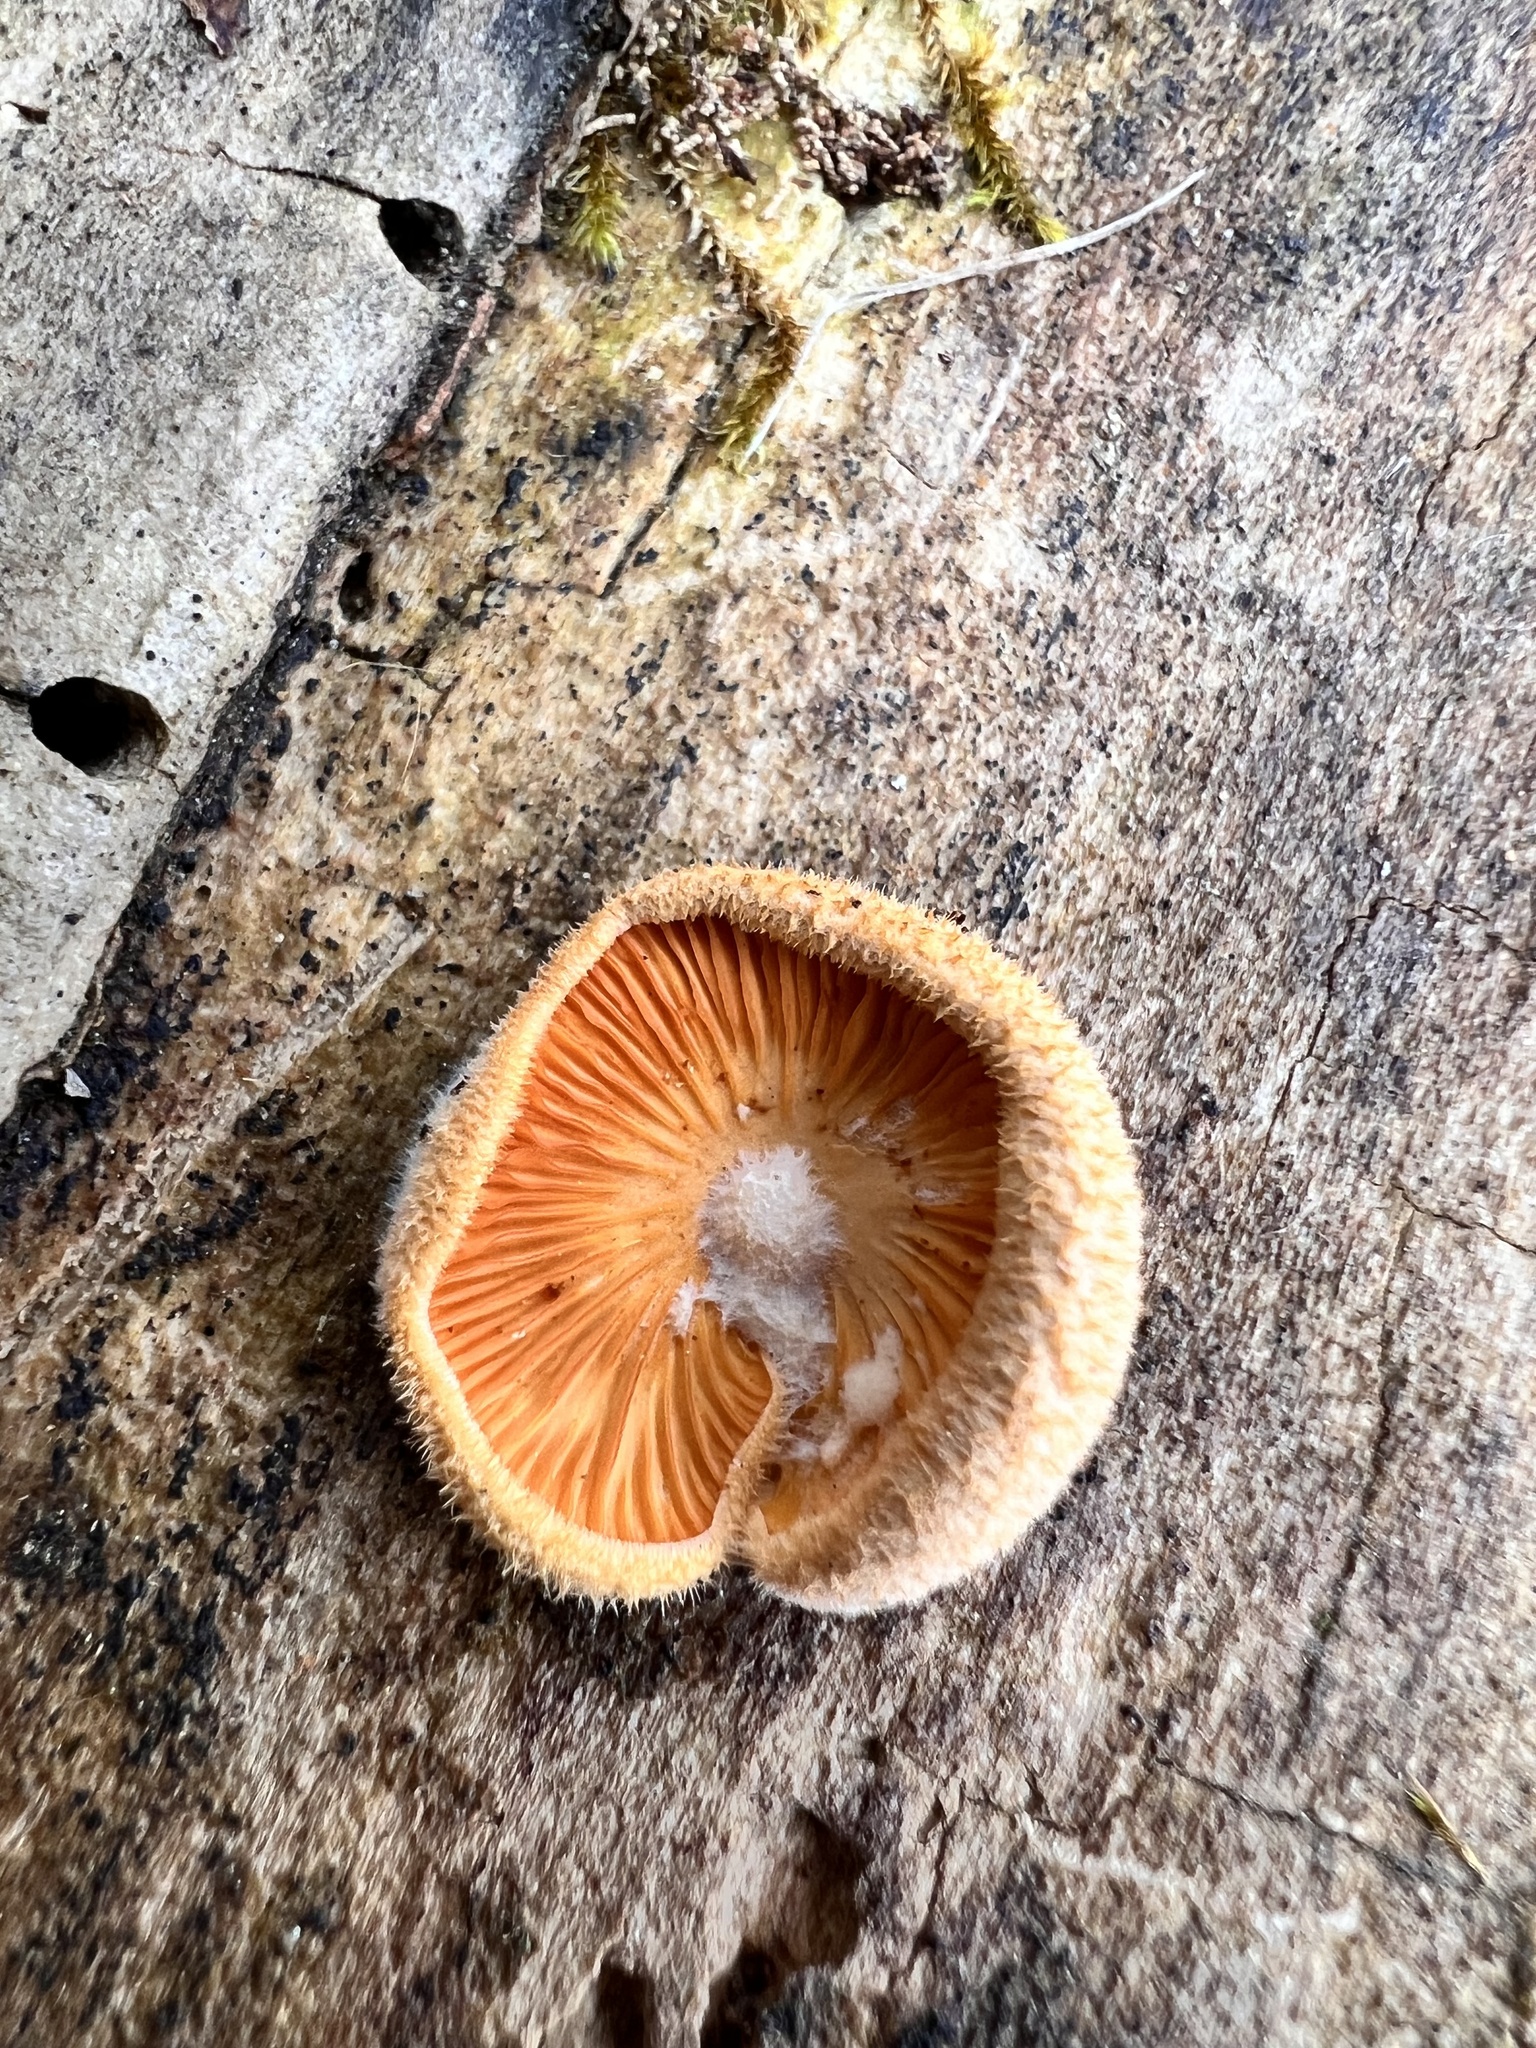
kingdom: Fungi
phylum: Basidiomycota
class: Agaricomycetes
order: Agaricales
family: Phyllotopsidaceae
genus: Phyllotopsis
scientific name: Phyllotopsis nidulans
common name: Orange mock oyster
